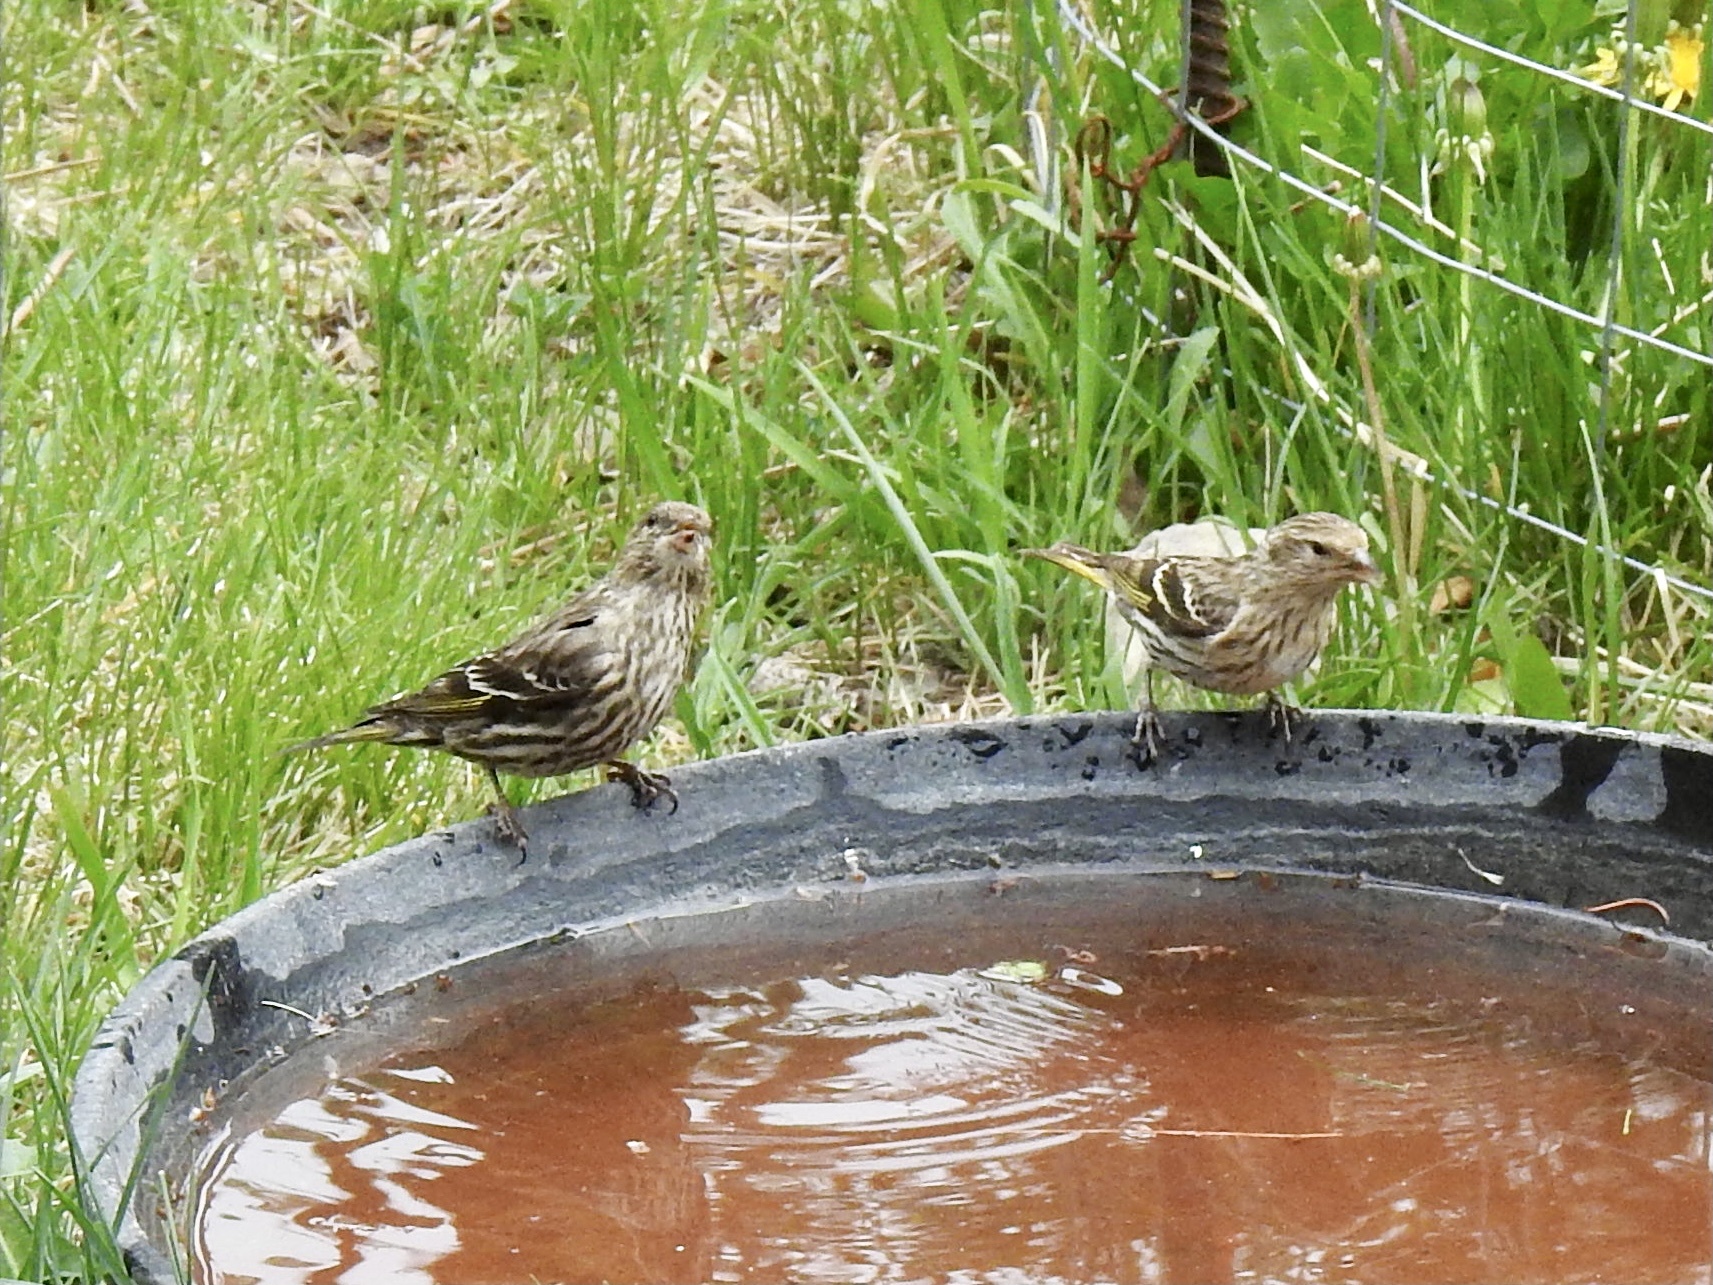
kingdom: Animalia
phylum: Chordata
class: Aves
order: Passeriformes
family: Fringillidae
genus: Spinus
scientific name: Spinus pinus
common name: Pine siskin
